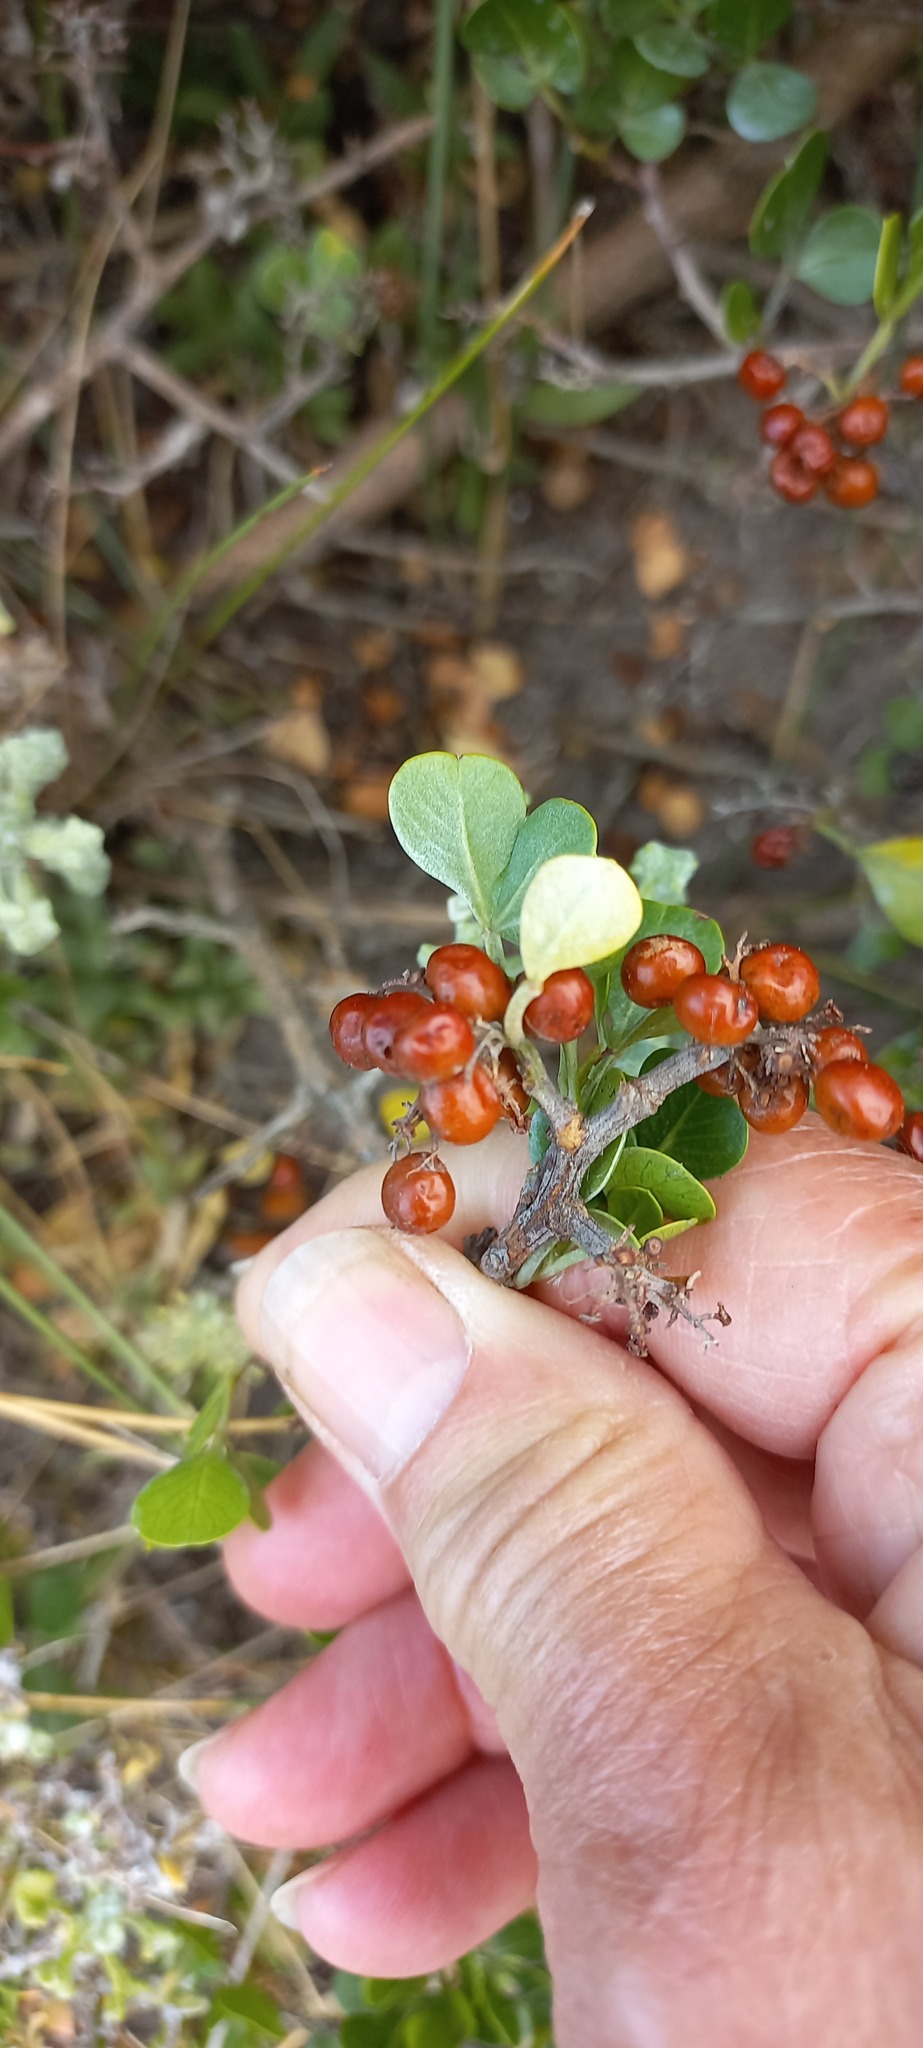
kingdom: Plantae
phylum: Tracheophyta
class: Magnoliopsida
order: Sapindales
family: Anacardiaceae
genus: Searsia
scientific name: Searsia glauca
